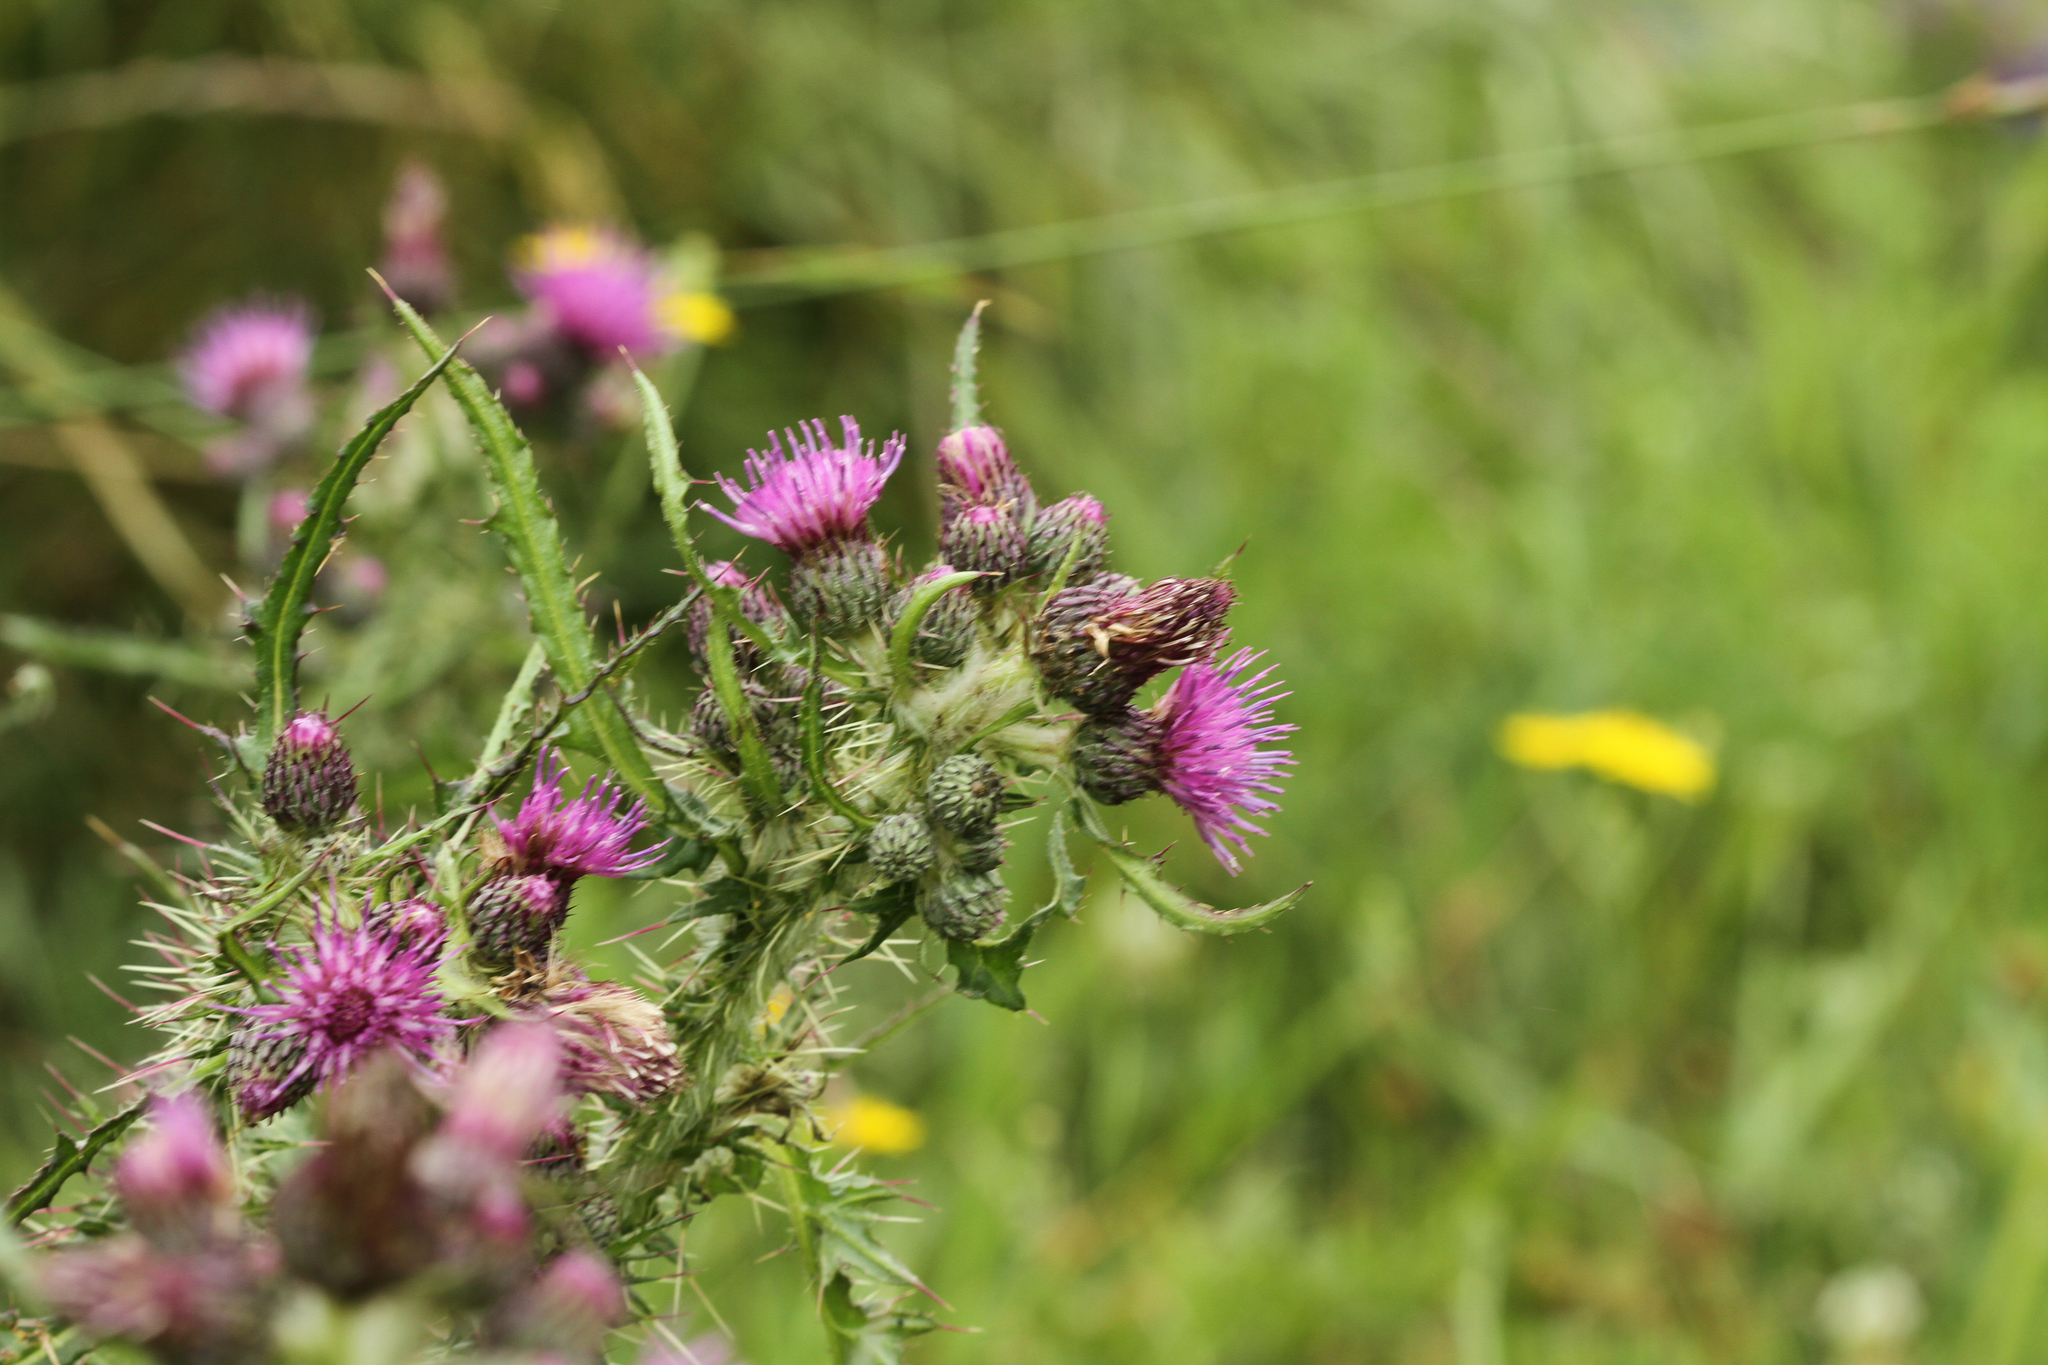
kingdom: Plantae
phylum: Tracheophyta
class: Magnoliopsida
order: Asterales
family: Asteraceae
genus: Cirsium
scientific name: Cirsium palustre
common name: Marsh thistle
